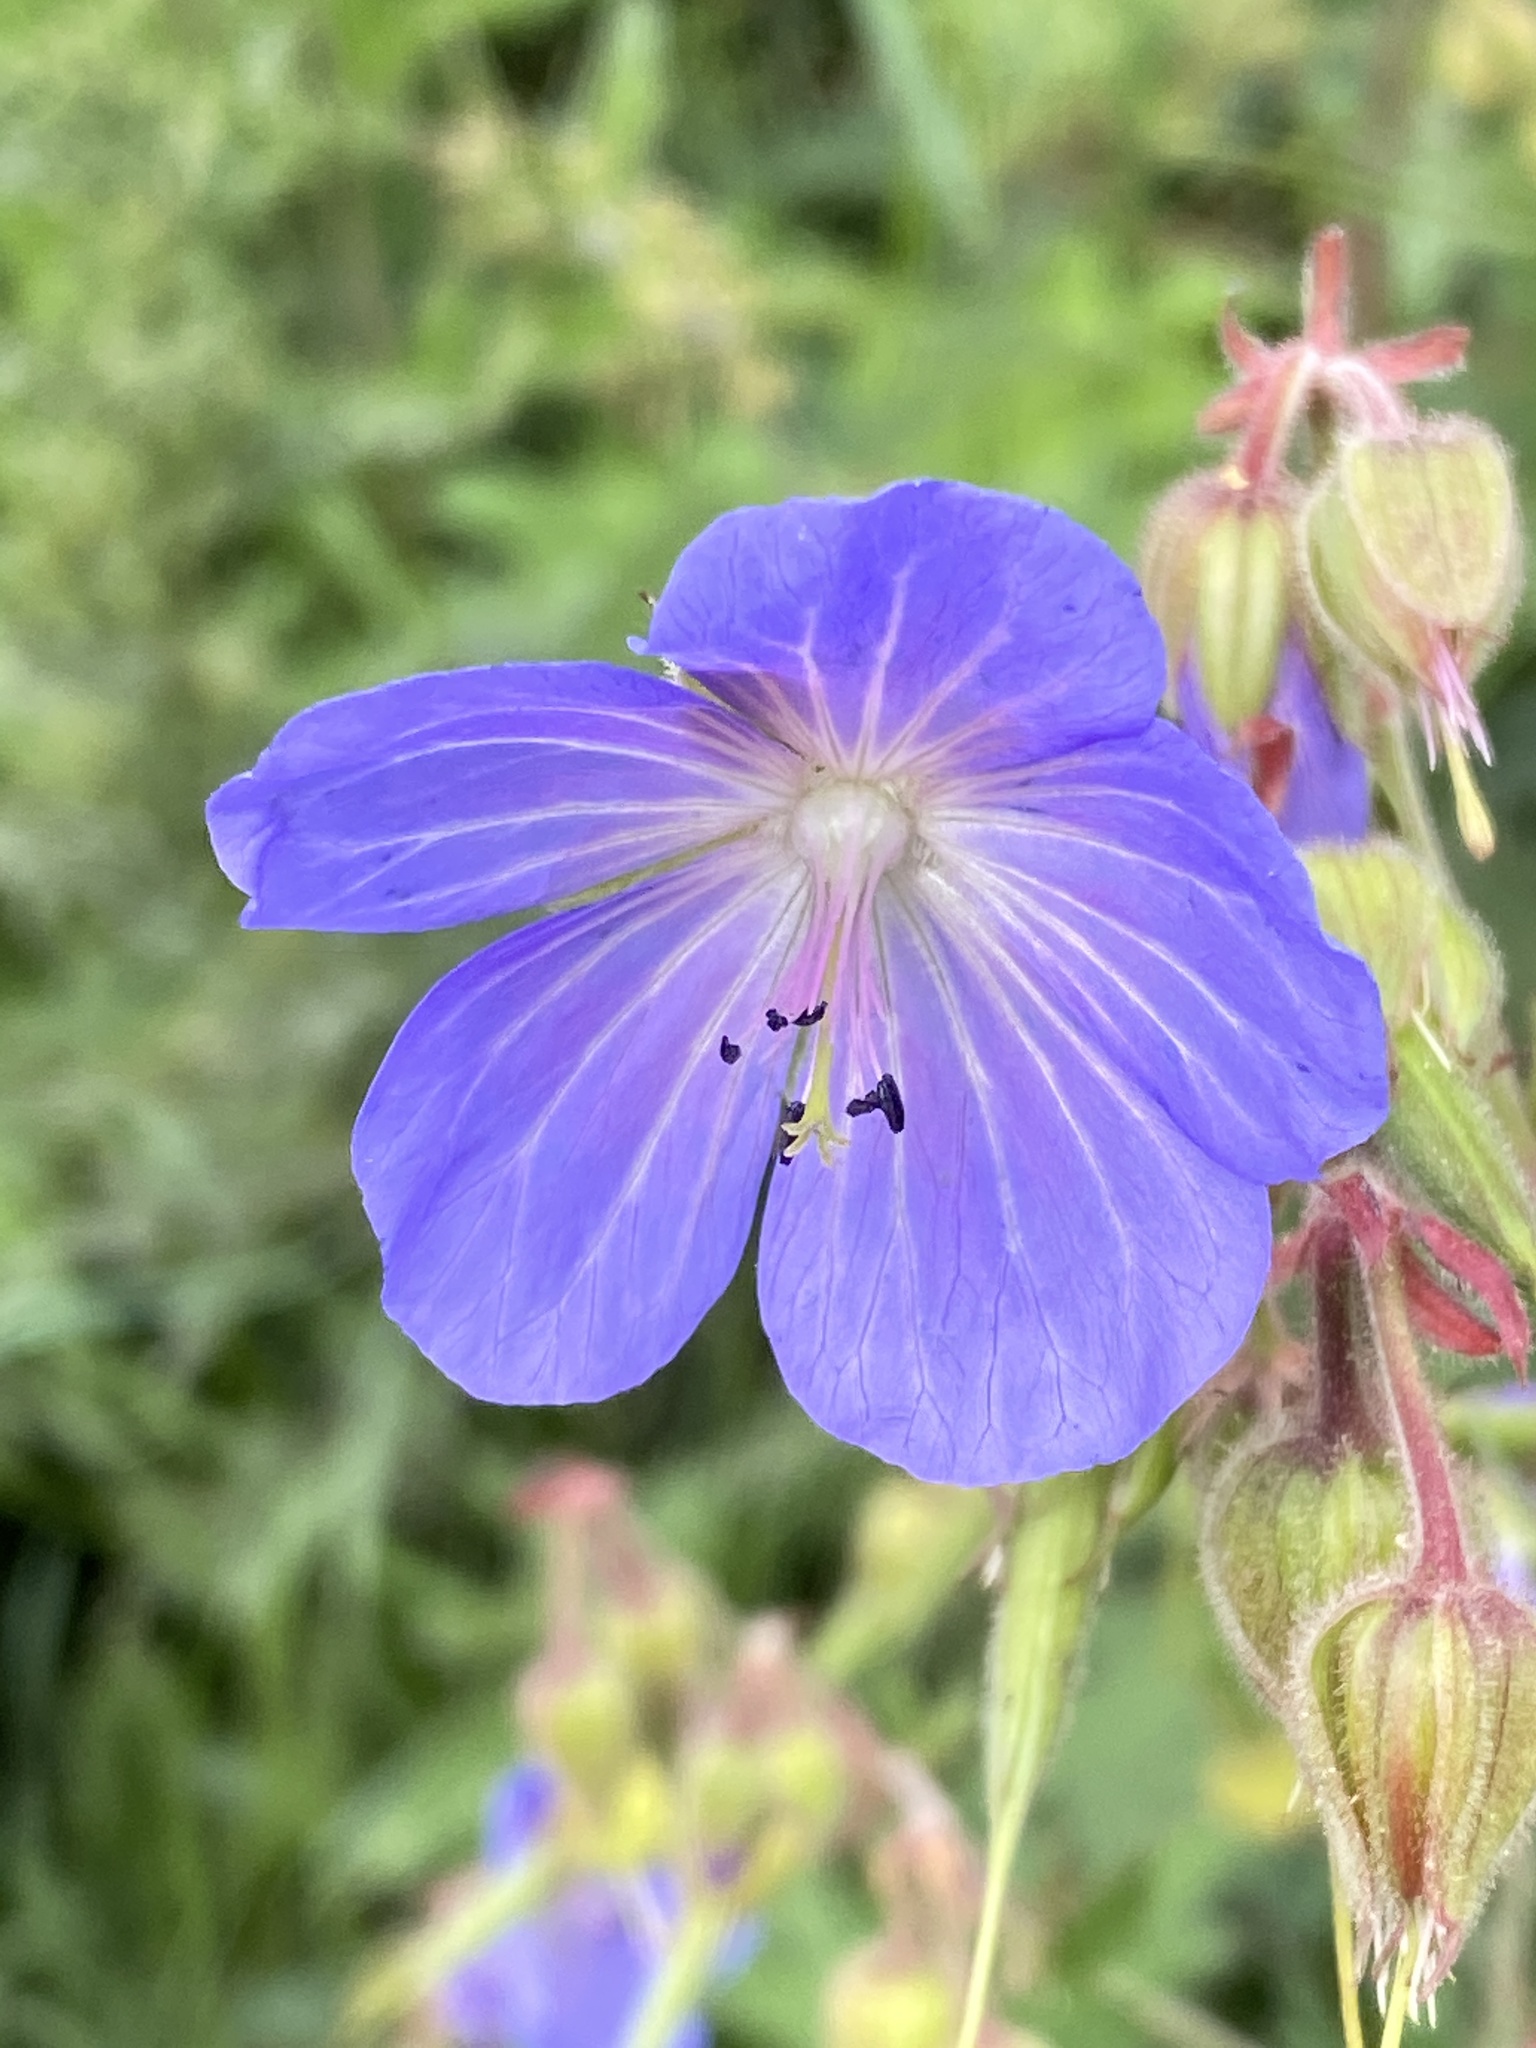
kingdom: Plantae
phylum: Tracheophyta
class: Magnoliopsida
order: Geraniales
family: Geraniaceae
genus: Geranium
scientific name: Geranium pratense
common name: Meadow crane's-bill
